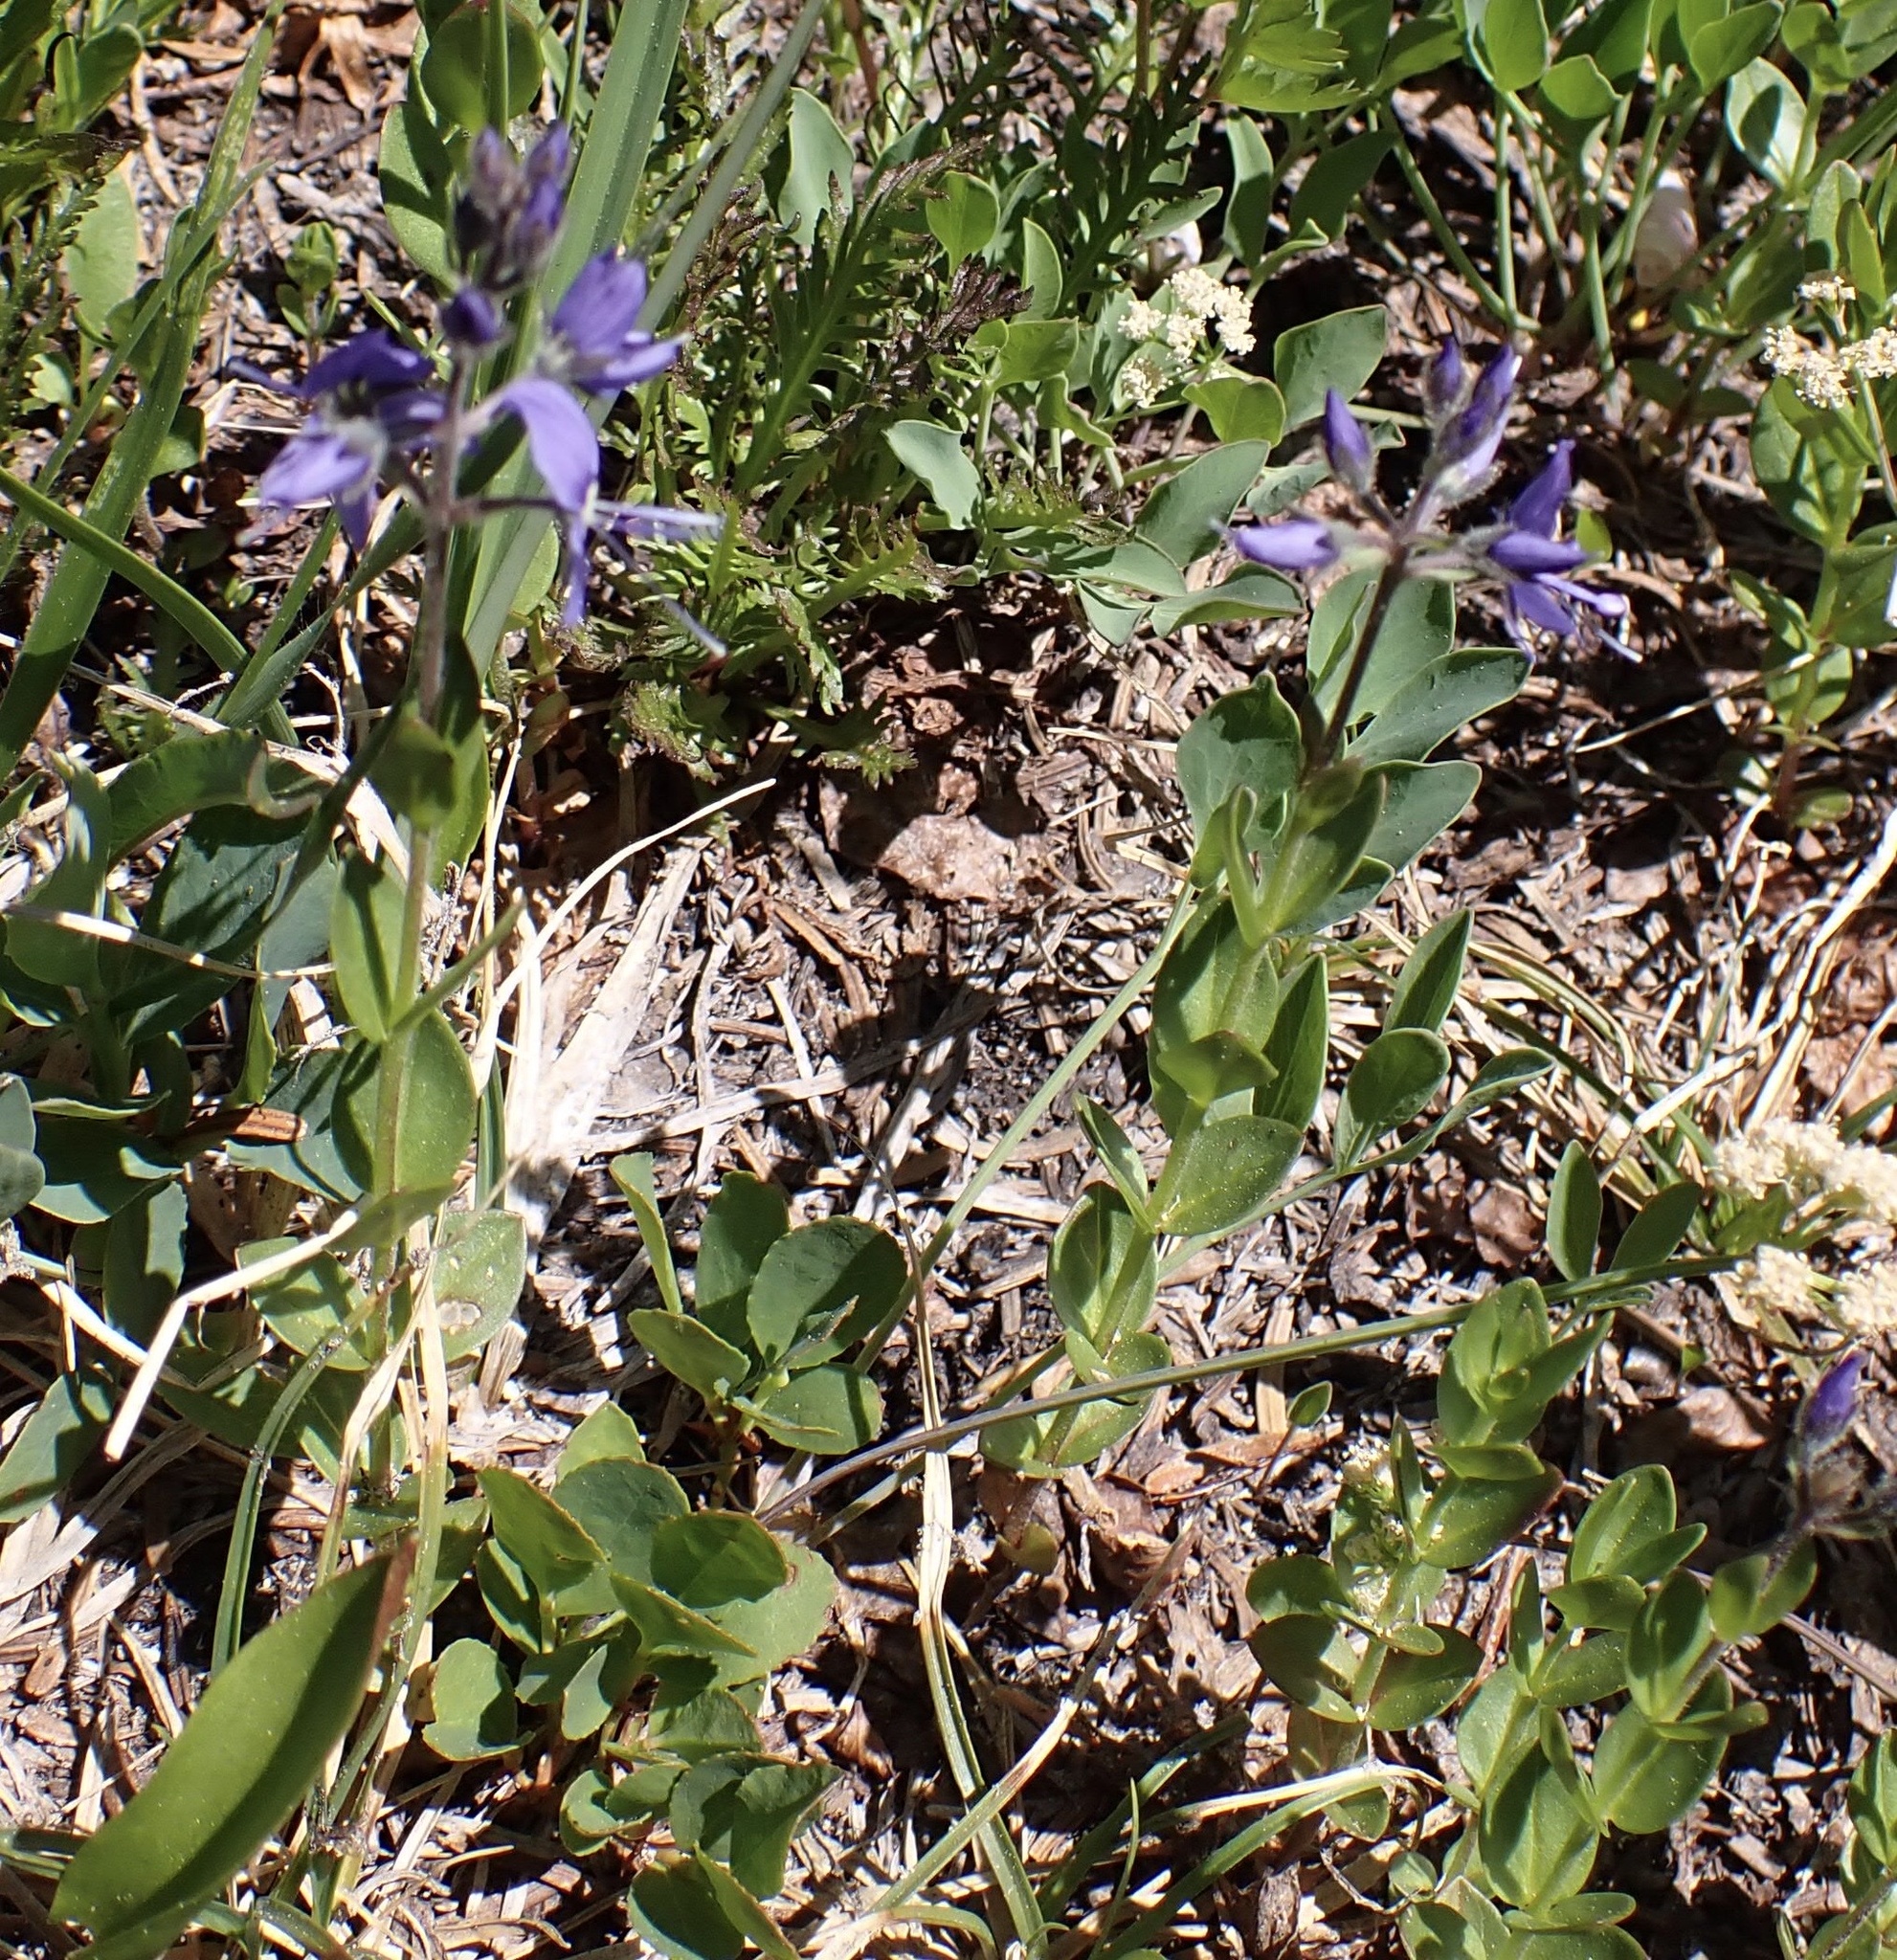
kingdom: Plantae
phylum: Tracheophyta
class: Magnoliopsida
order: Lamiales
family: Plantaginaceae
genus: Veronica
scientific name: Veronica cusickii
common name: Cusick's speedwell
